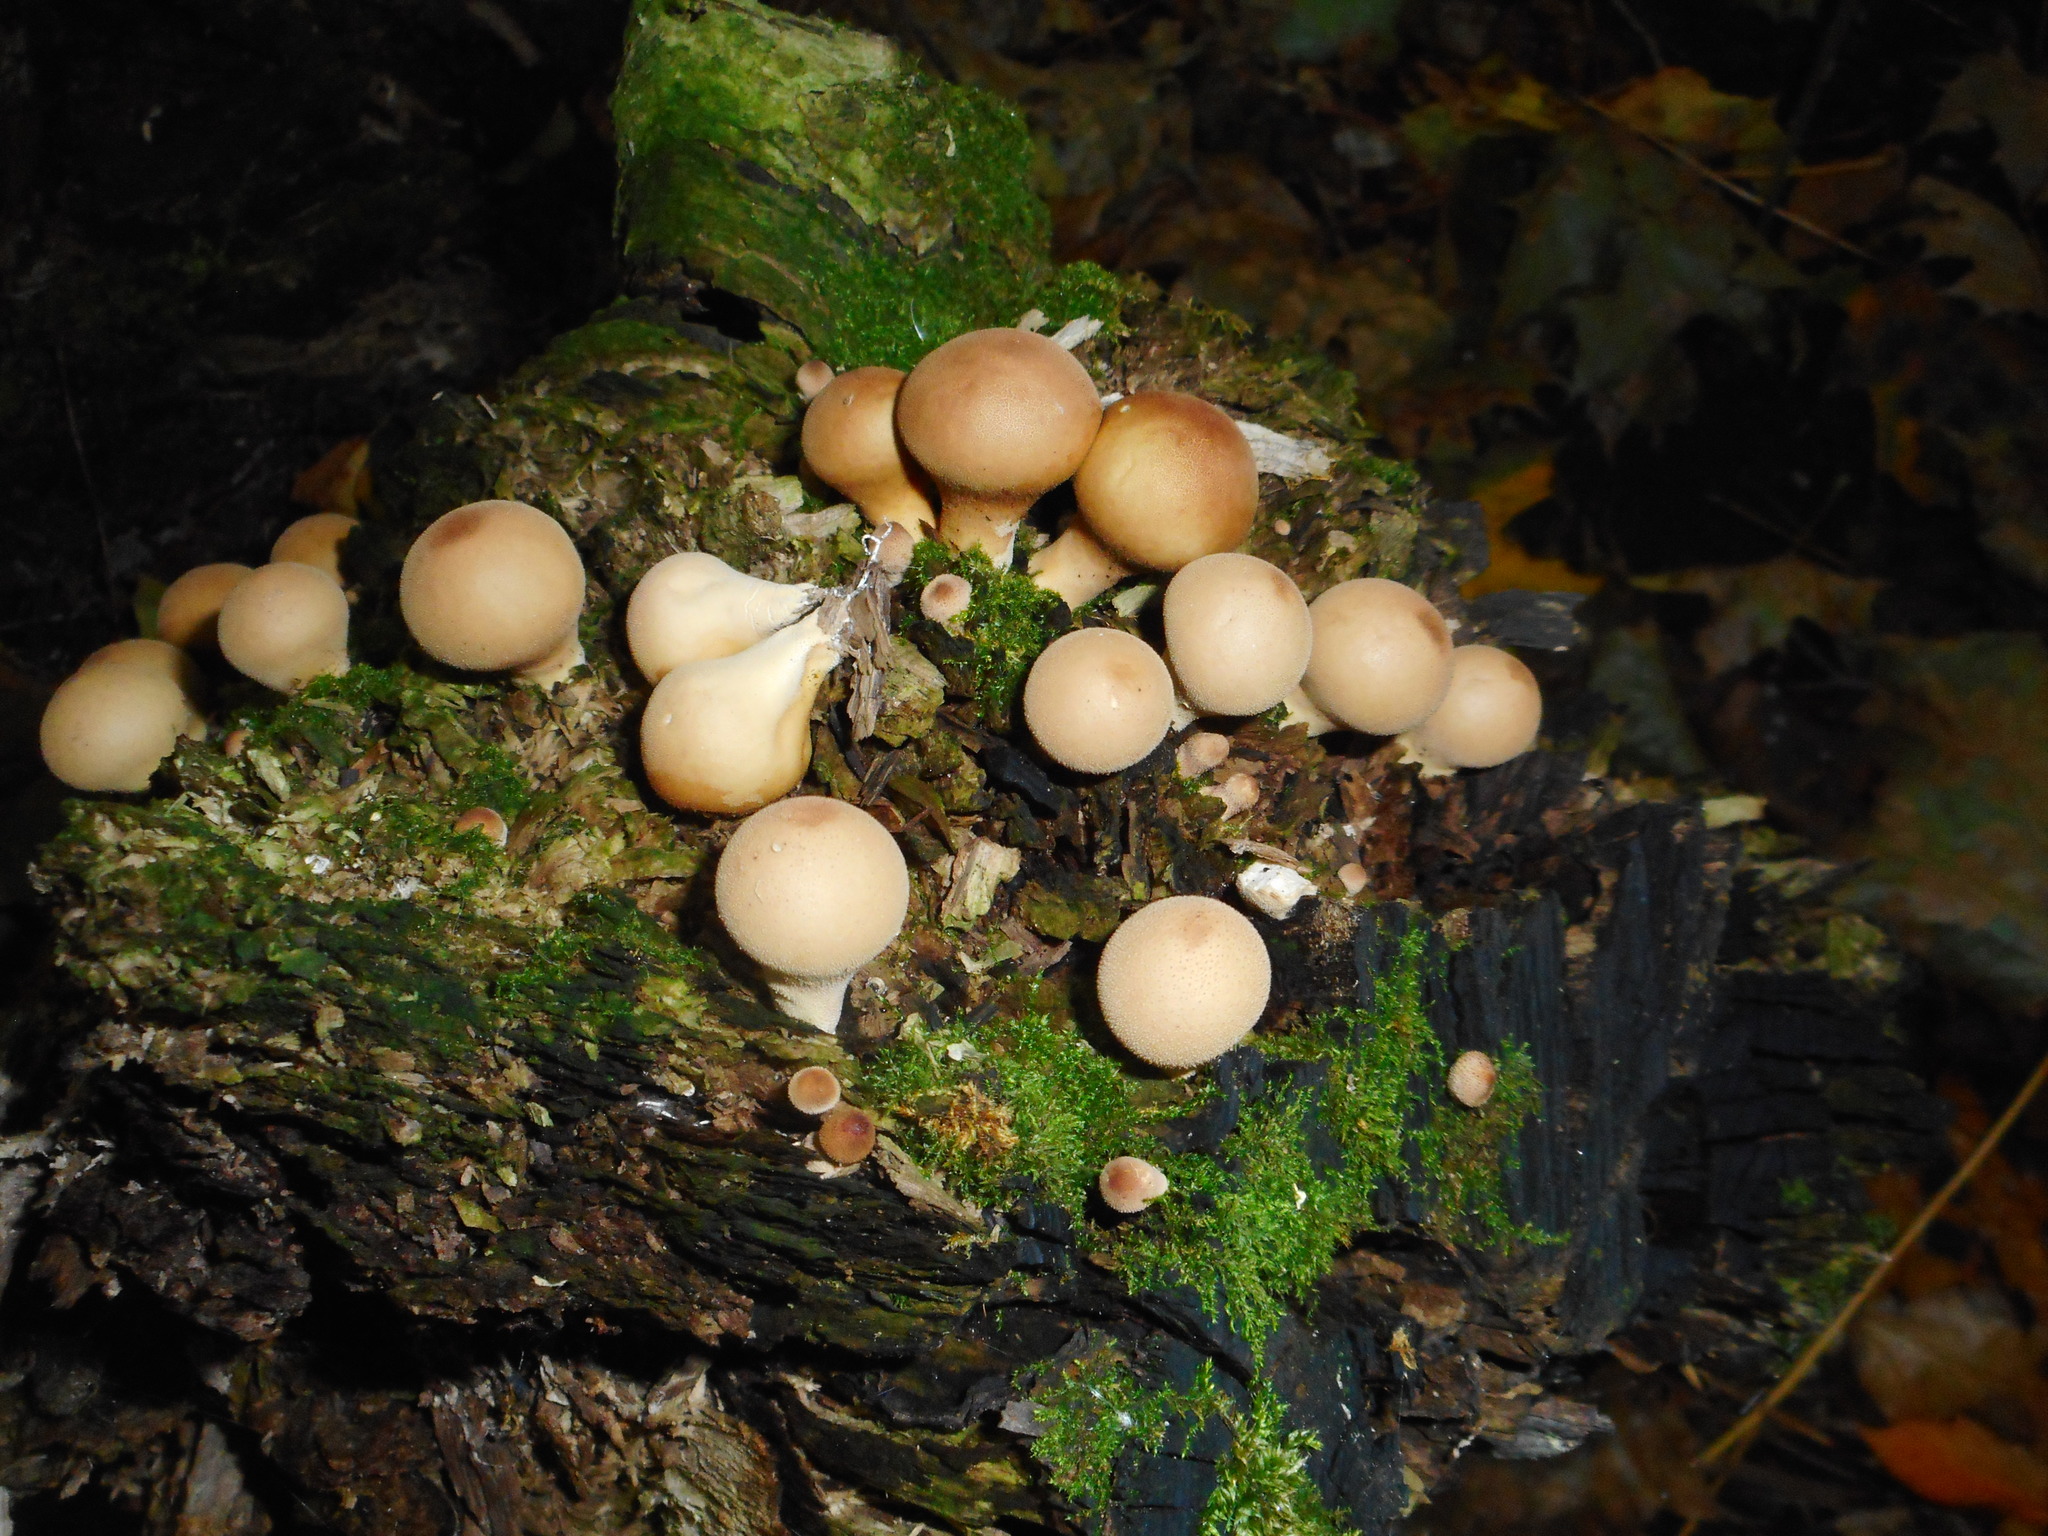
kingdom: Fungi
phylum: Basidiomycota
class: Agaricomycetes
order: Agaricales
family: Lycoperdaceae
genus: Apioperdon
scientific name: Apioperdon pyriforme
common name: Pear-shaped puffball
